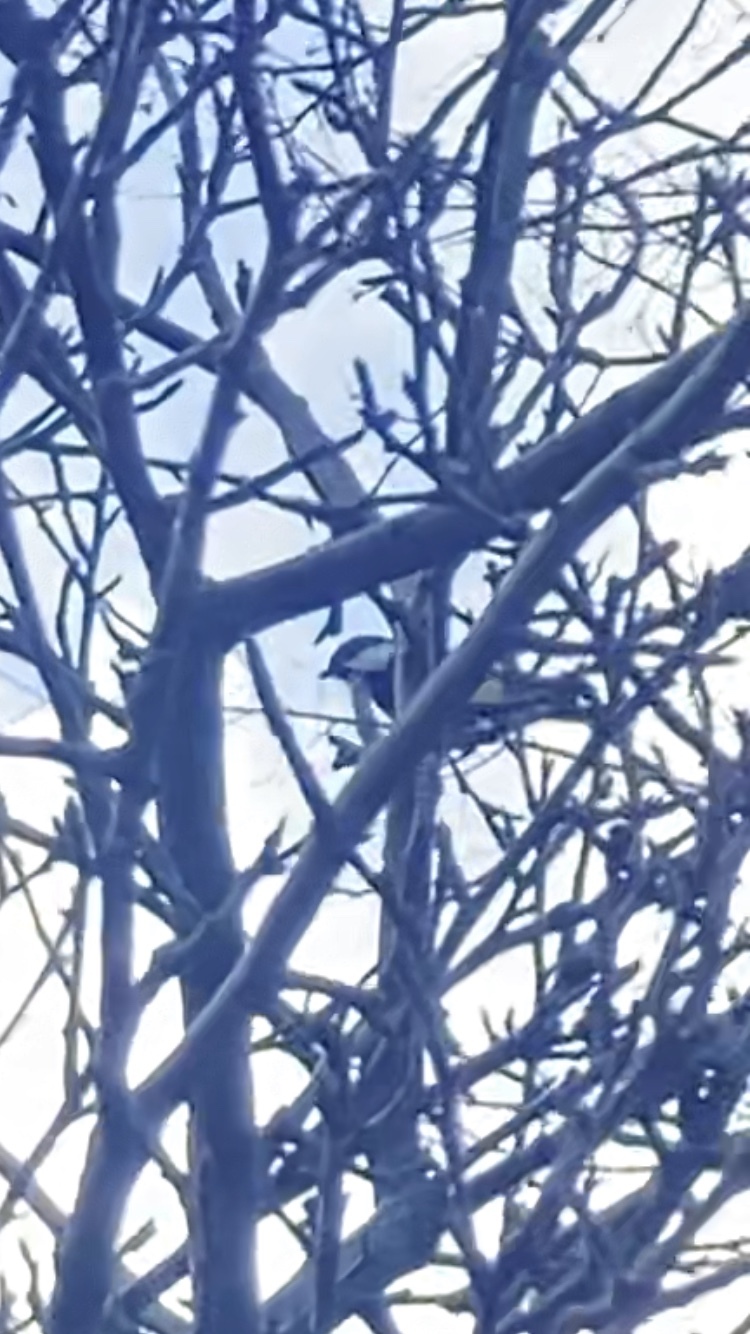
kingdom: Animalia
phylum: Chordata
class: Aves
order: Passeriformes
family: Paridae
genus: Parus
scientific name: Parus major
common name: Great tit
